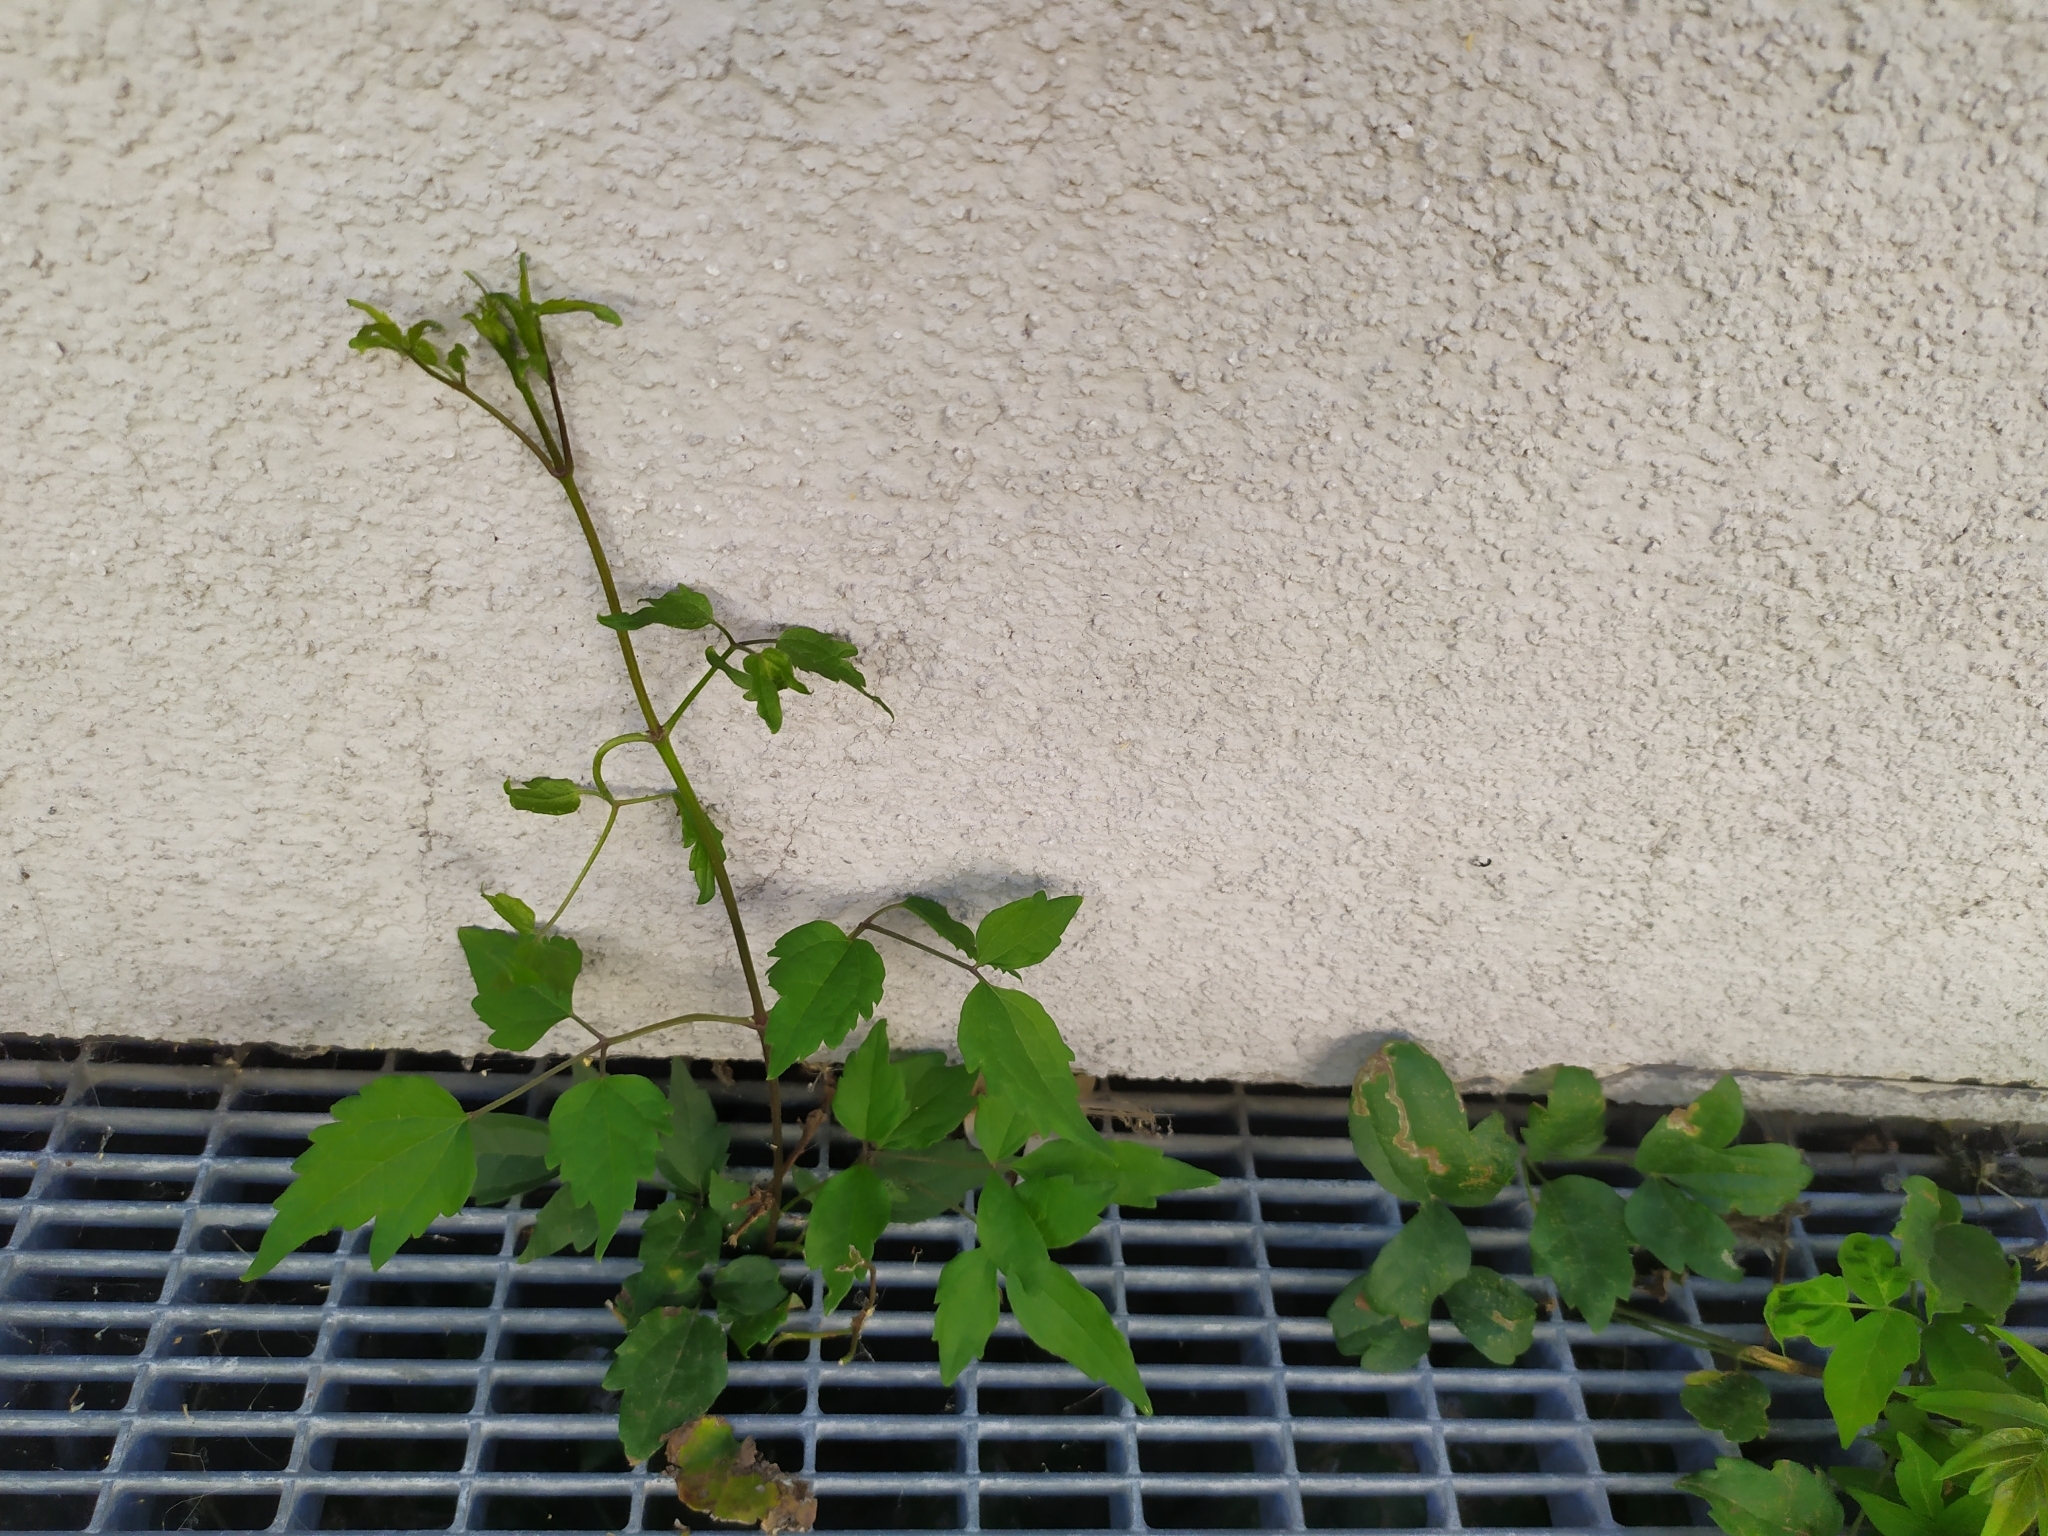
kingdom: Plantae
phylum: Tracheophyta
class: Magnoliopsida
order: Ranunculales
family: Ranunculaceae
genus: Clematis
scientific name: Clematis vitalba
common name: Evergreen clematis
